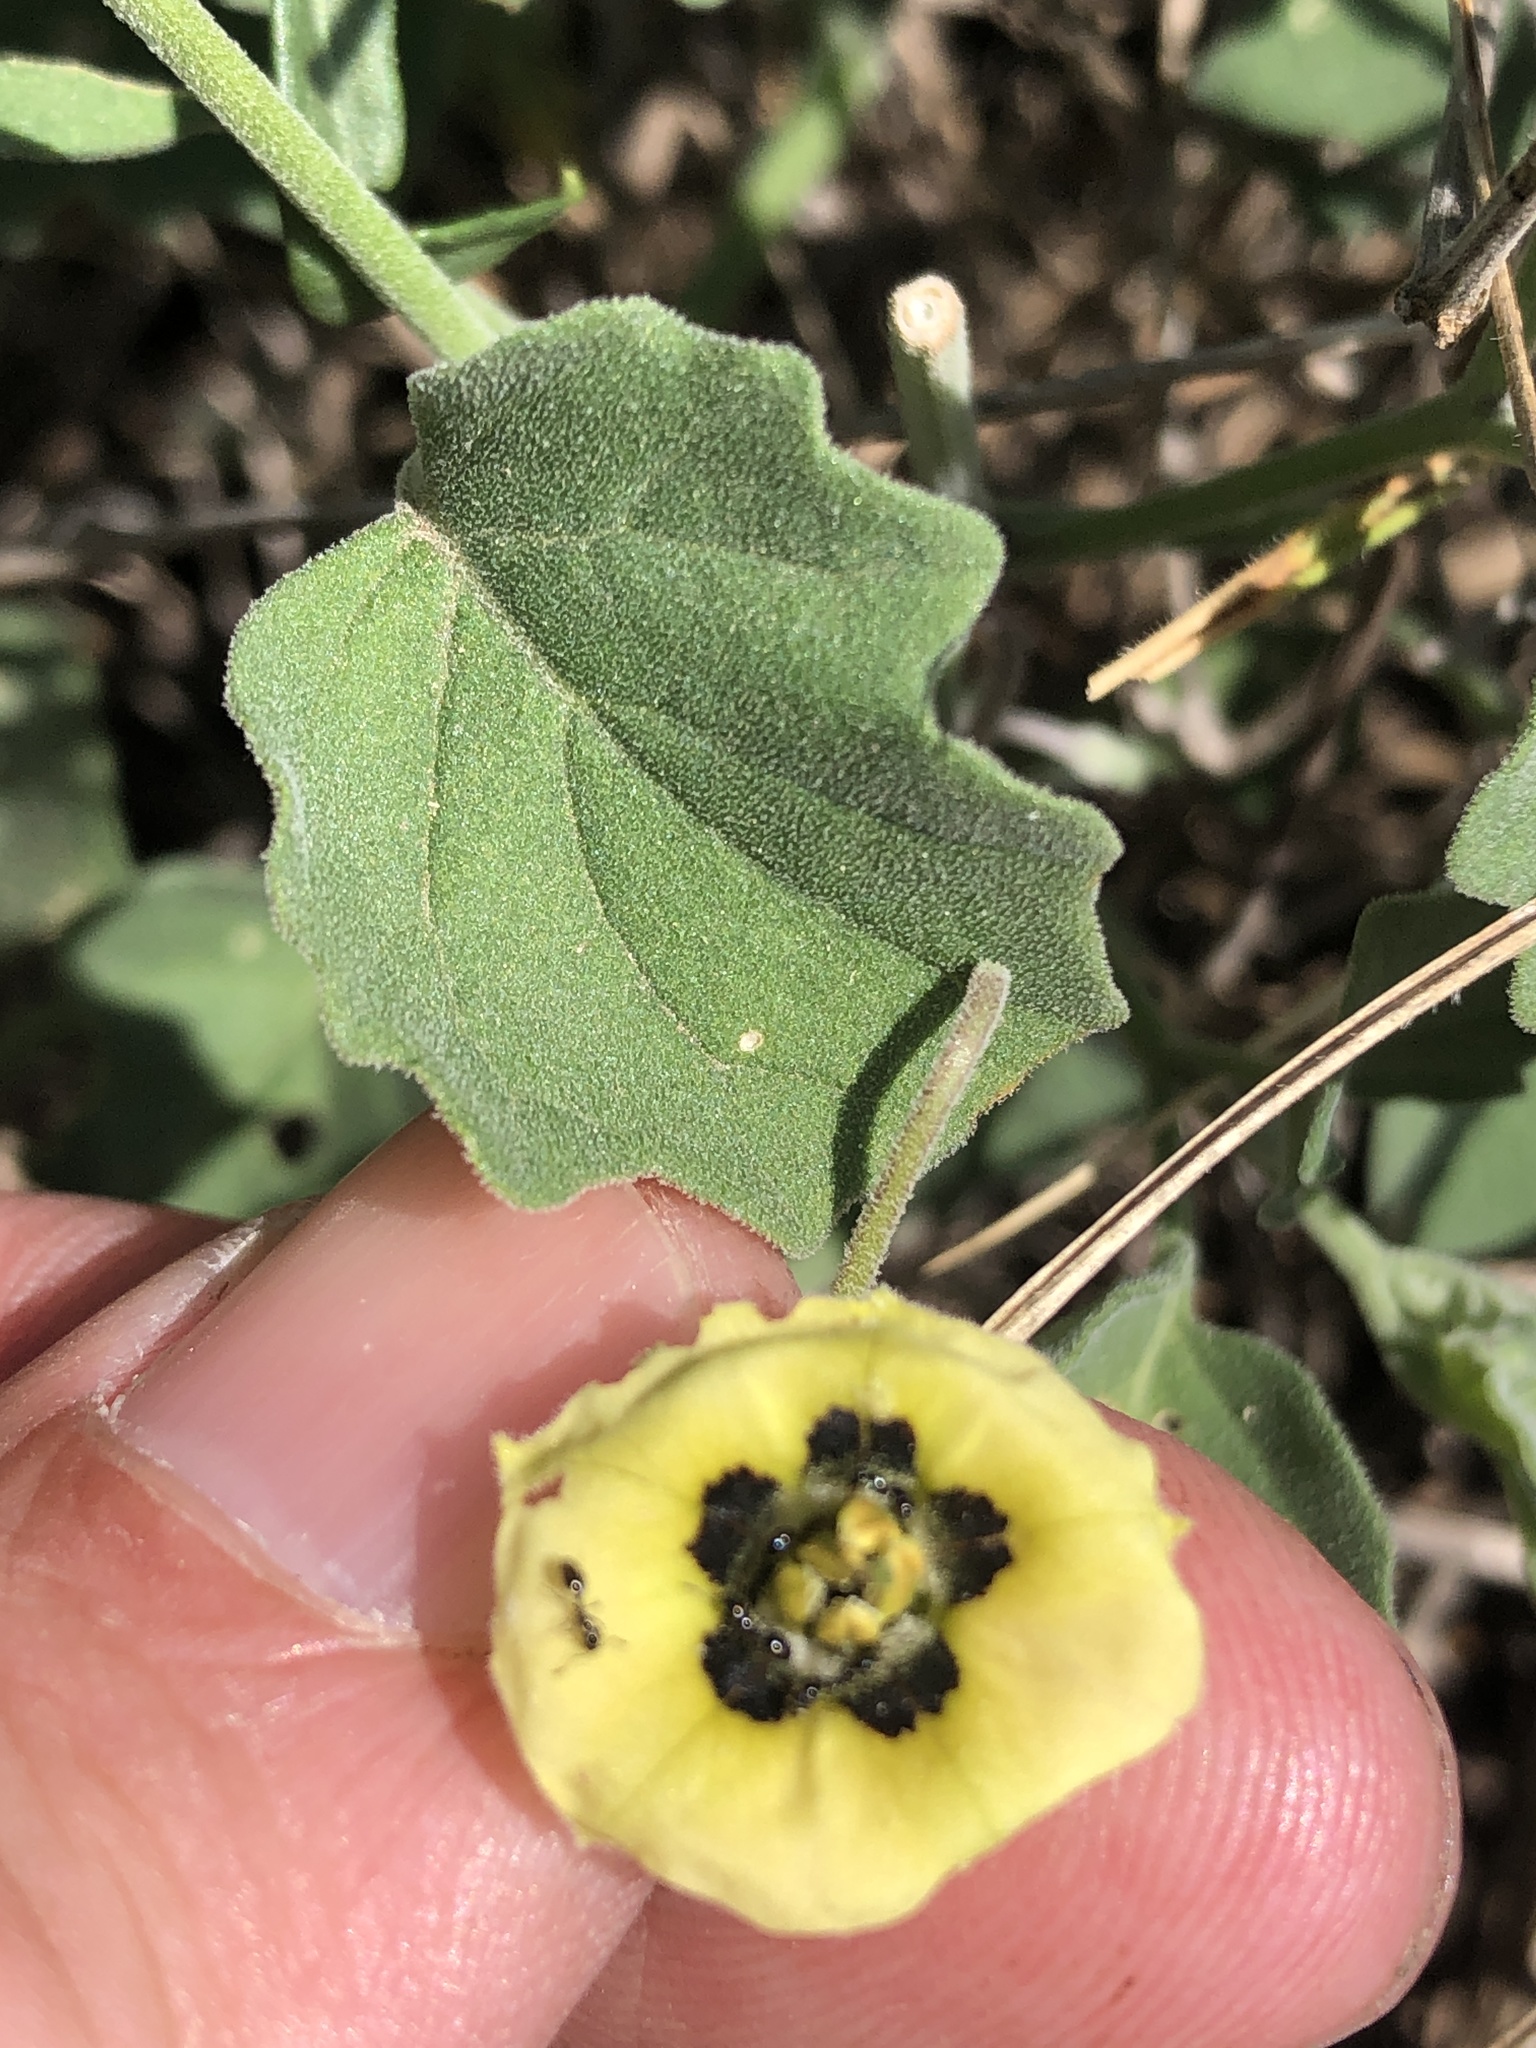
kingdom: Plantae
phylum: Tracheophyta
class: Magnoliopsida
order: Solanales
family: Solanaceae
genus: Physalis
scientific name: Physalis cinerascens
